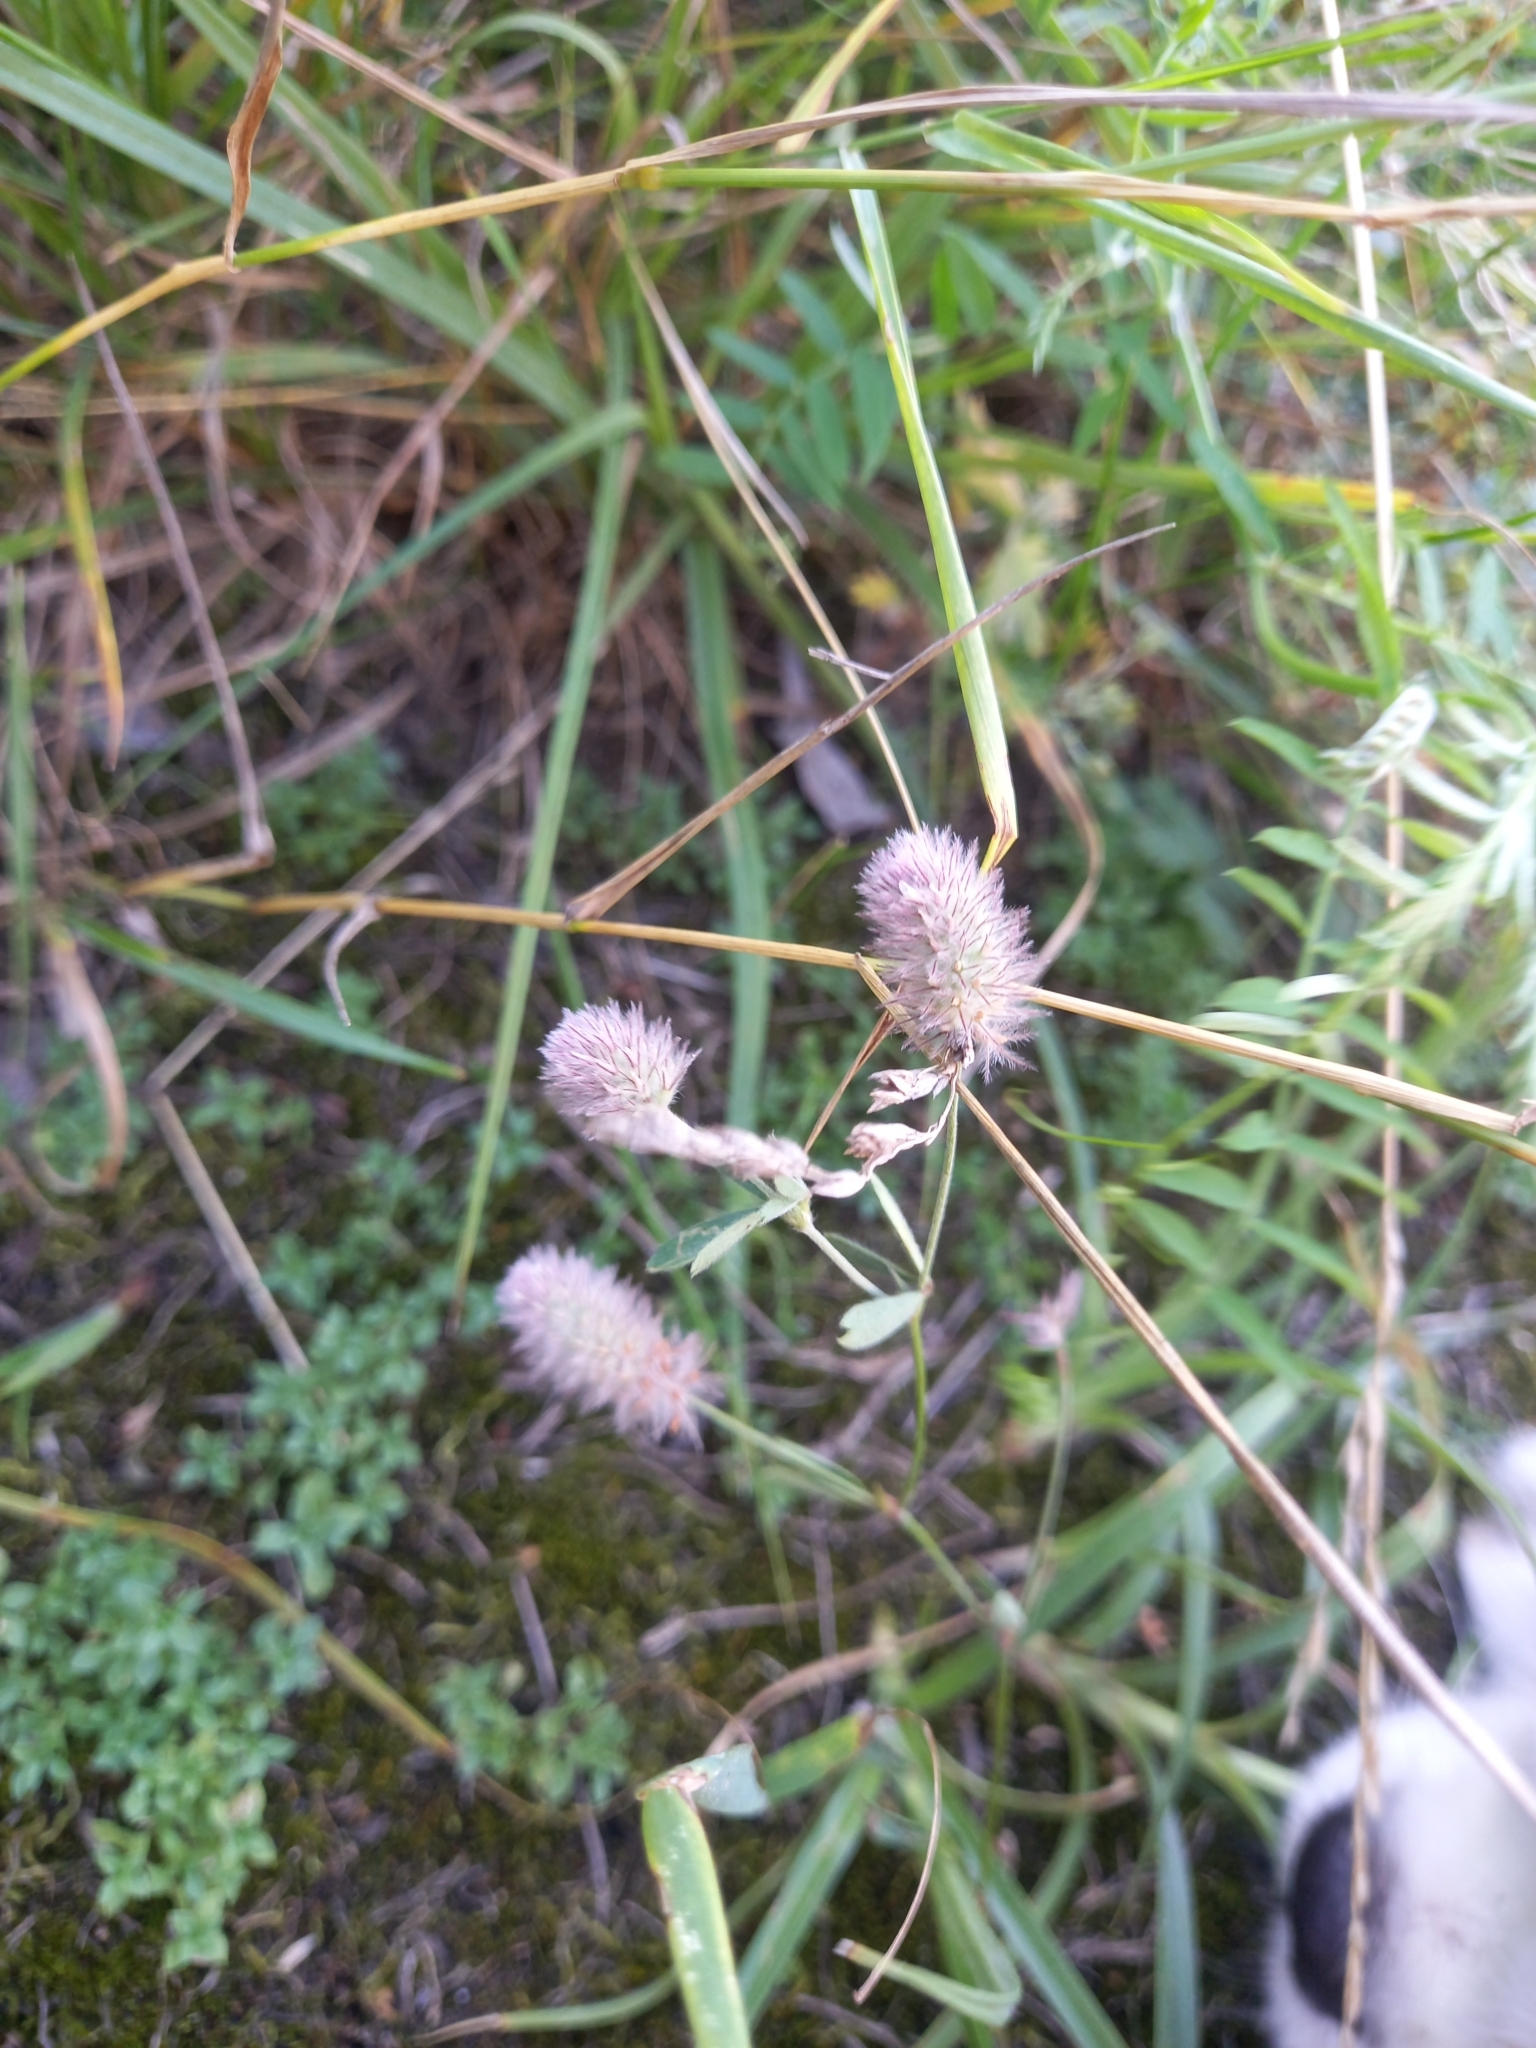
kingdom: Plantae
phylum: Tracheophyta
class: Magnoliopsida
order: Fabales
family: Fabaceae
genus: Trifolium
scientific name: Trifolium arvense
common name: Hare's-foot clover
